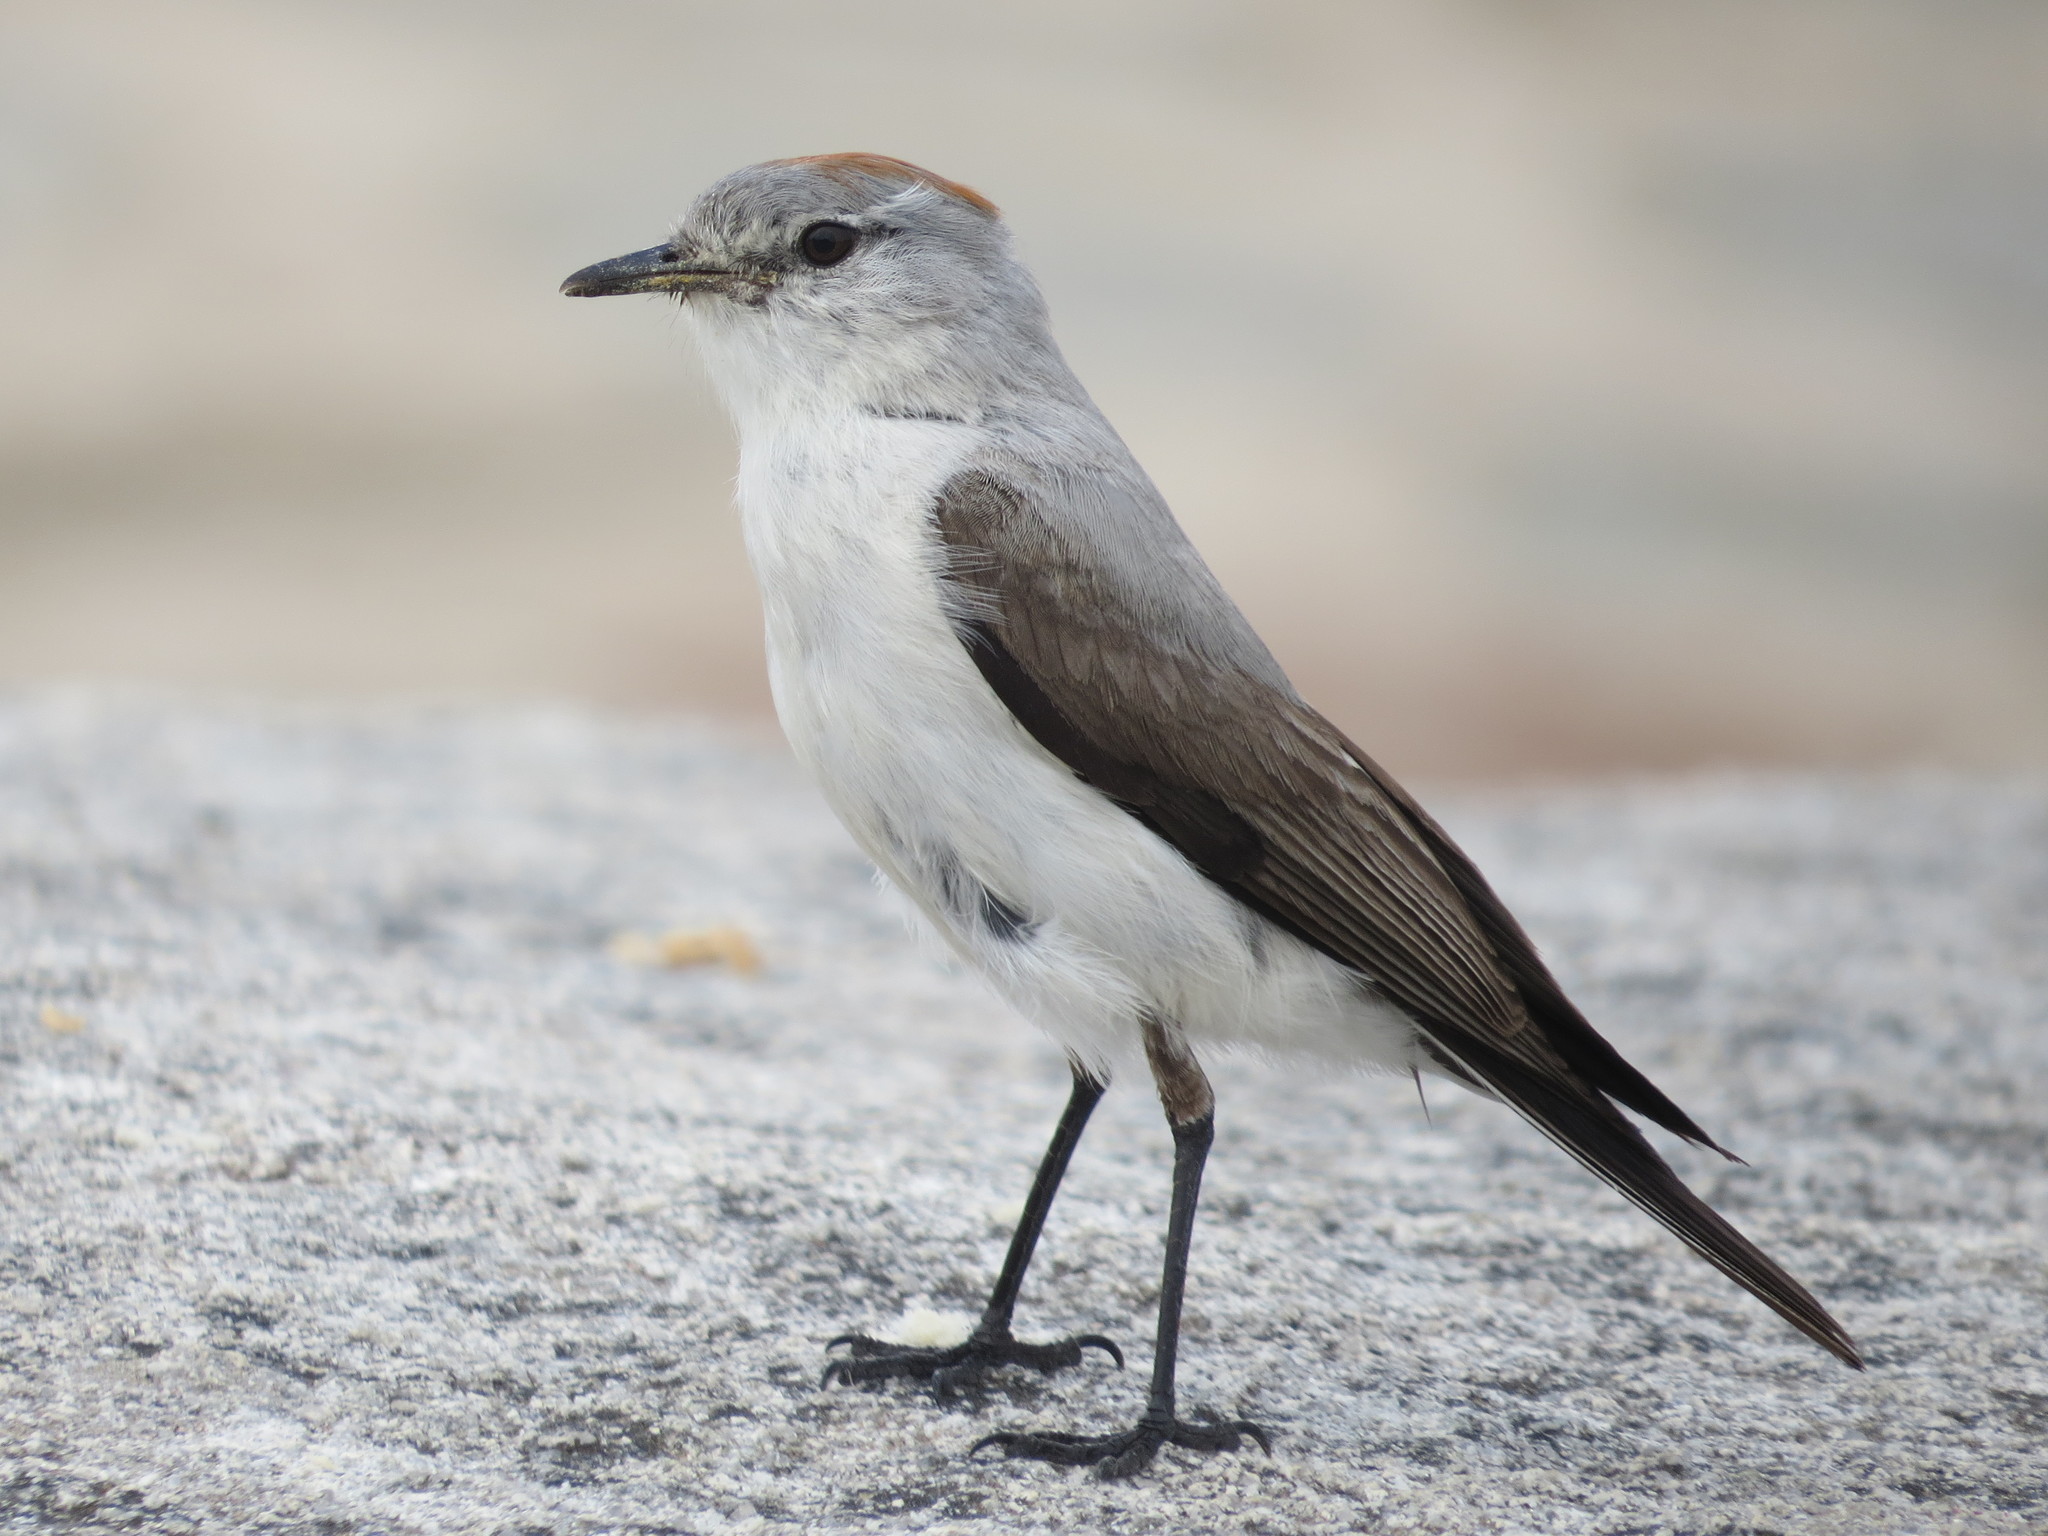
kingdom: Animalia
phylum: Chordata
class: Aves
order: Passeriformes
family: Tyrannidae
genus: Muscisaxicola
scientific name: Muscisaxicola rufivertex
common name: Rufous-naped ground tyrant
